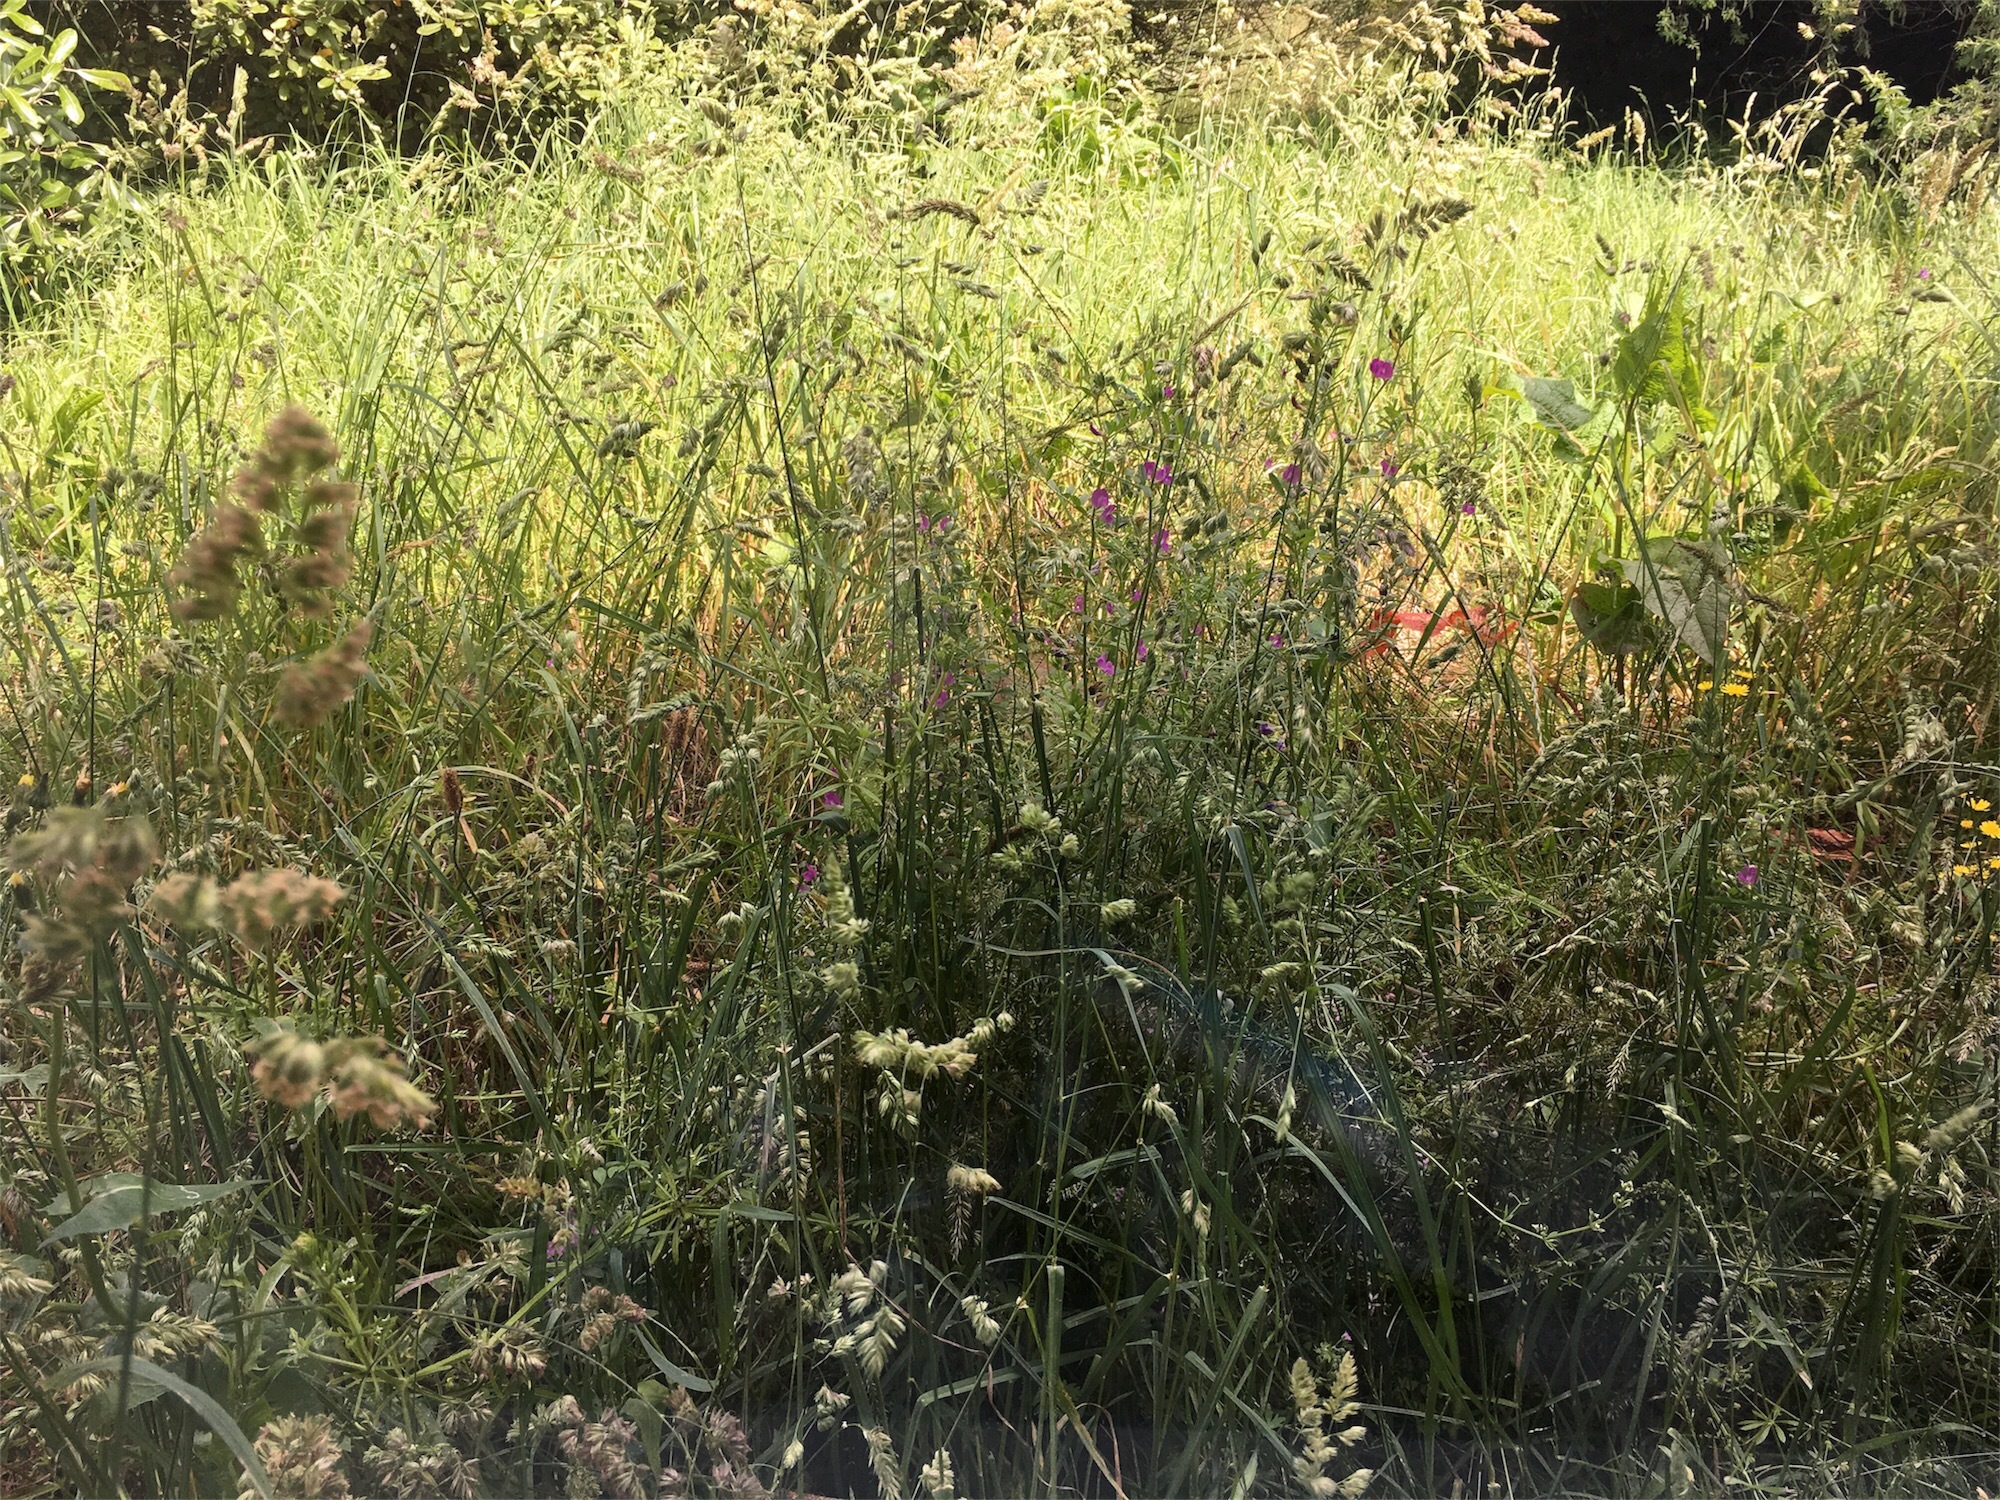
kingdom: Plantae
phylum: Tracheophyta
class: Liliopsida
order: Poales
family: Poaceae
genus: Dactylis
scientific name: Dactylis glomerata
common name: Orchardgrass
